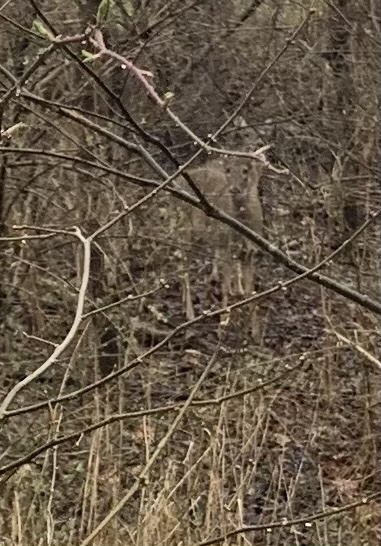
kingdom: Animalia
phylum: Chordata
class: Mammalia
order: Artiodactyla
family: Cervidae
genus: Odocoileus
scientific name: Odocoileus virginianus
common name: White-tailed deer
